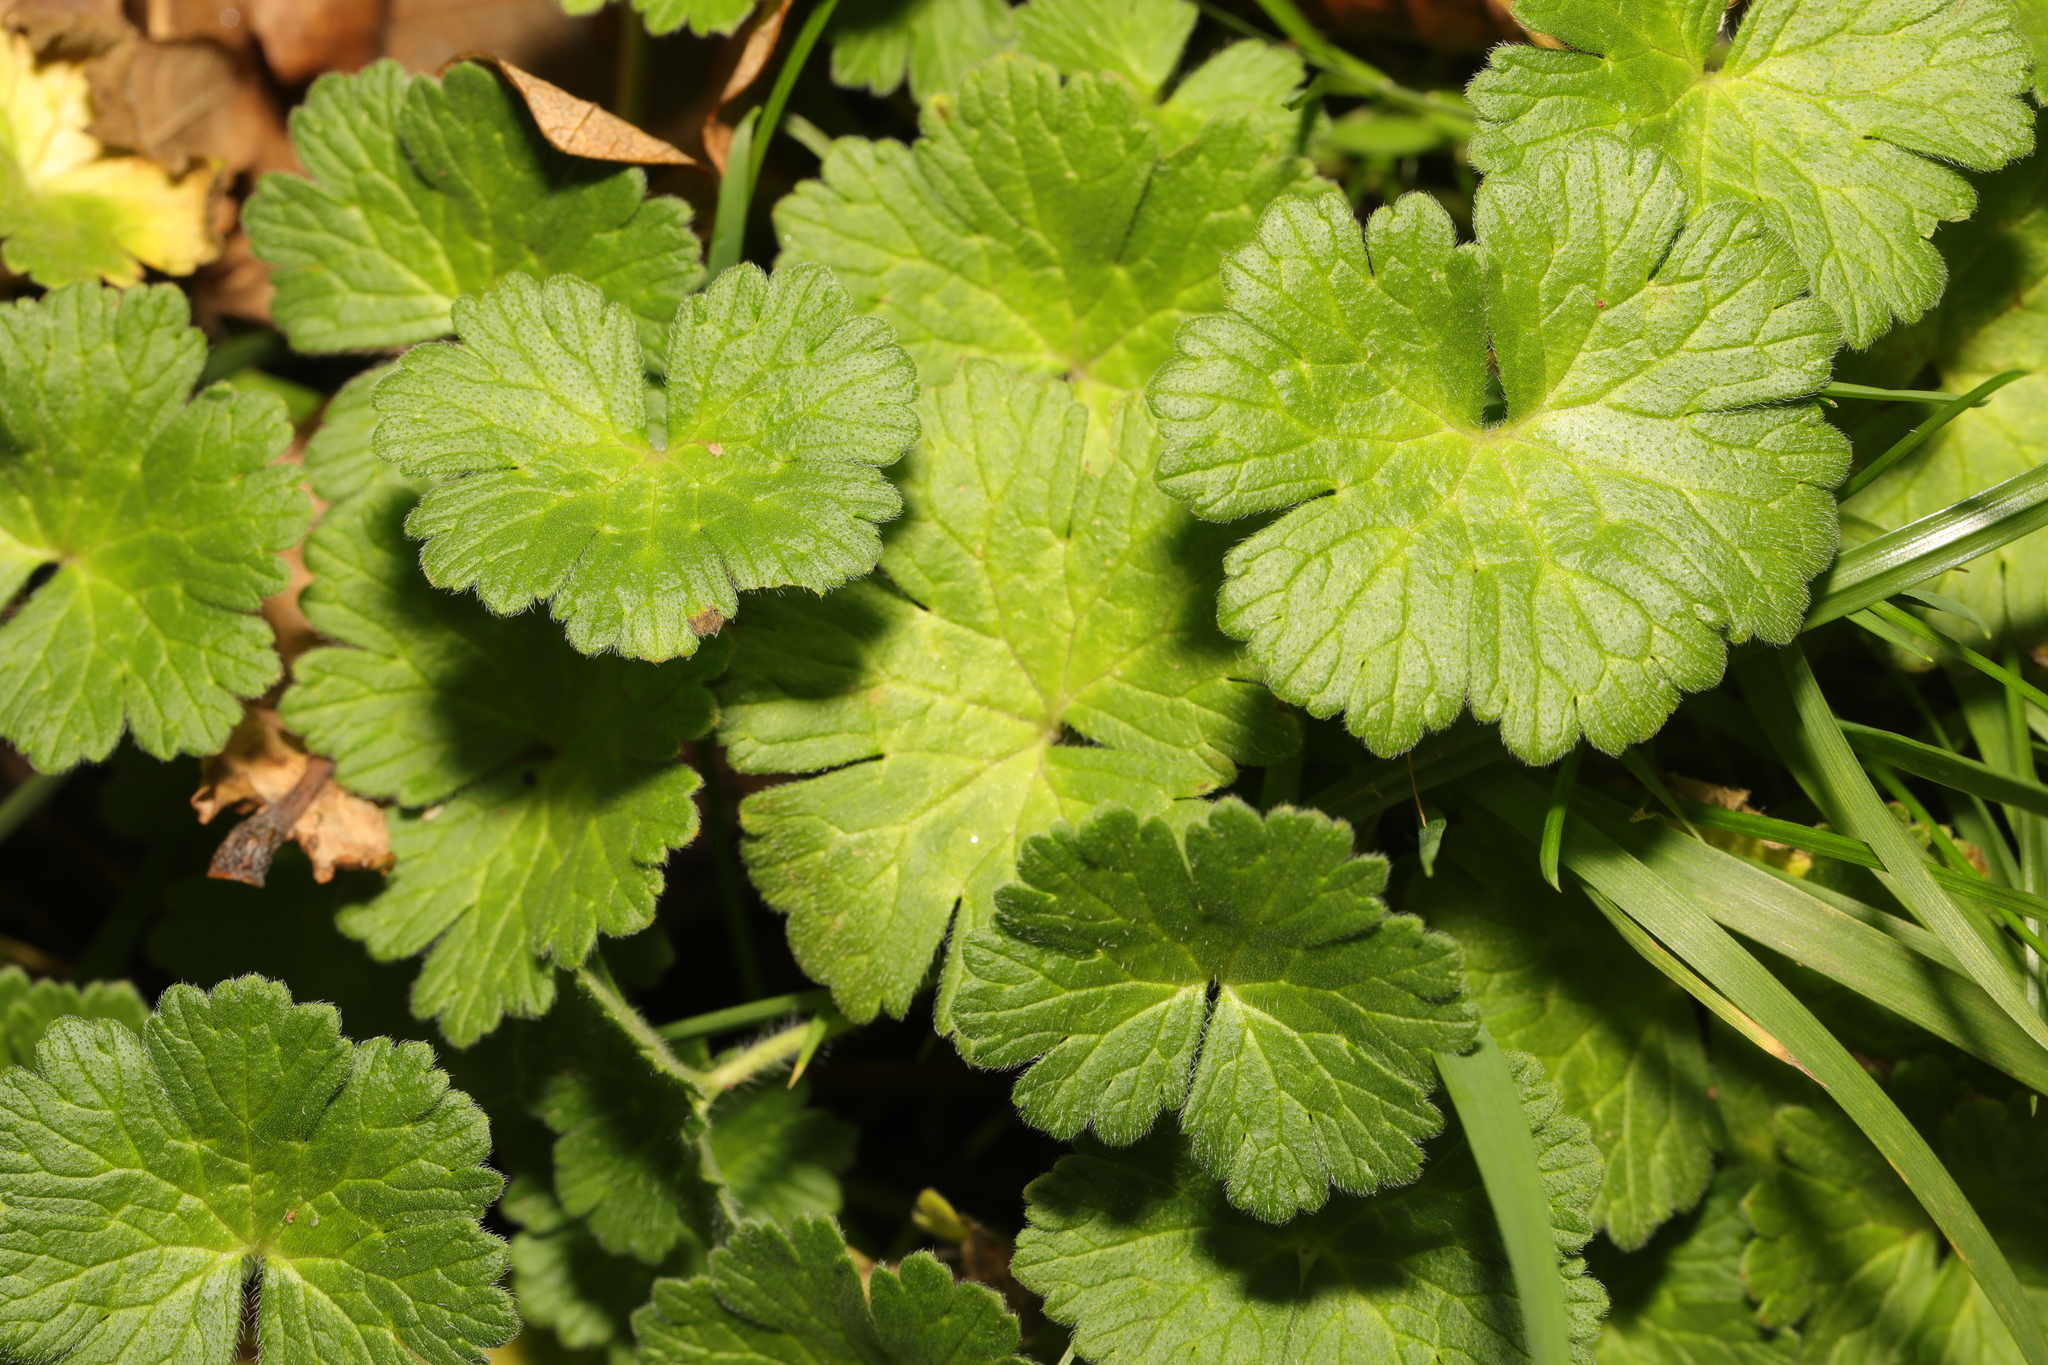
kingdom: Plantae
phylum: Tracheophyta
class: Magnoliopsida
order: Geraniales
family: Geraniaceae
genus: Geranium
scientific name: Geranium molle
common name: Dove's-foot crane's-bill
